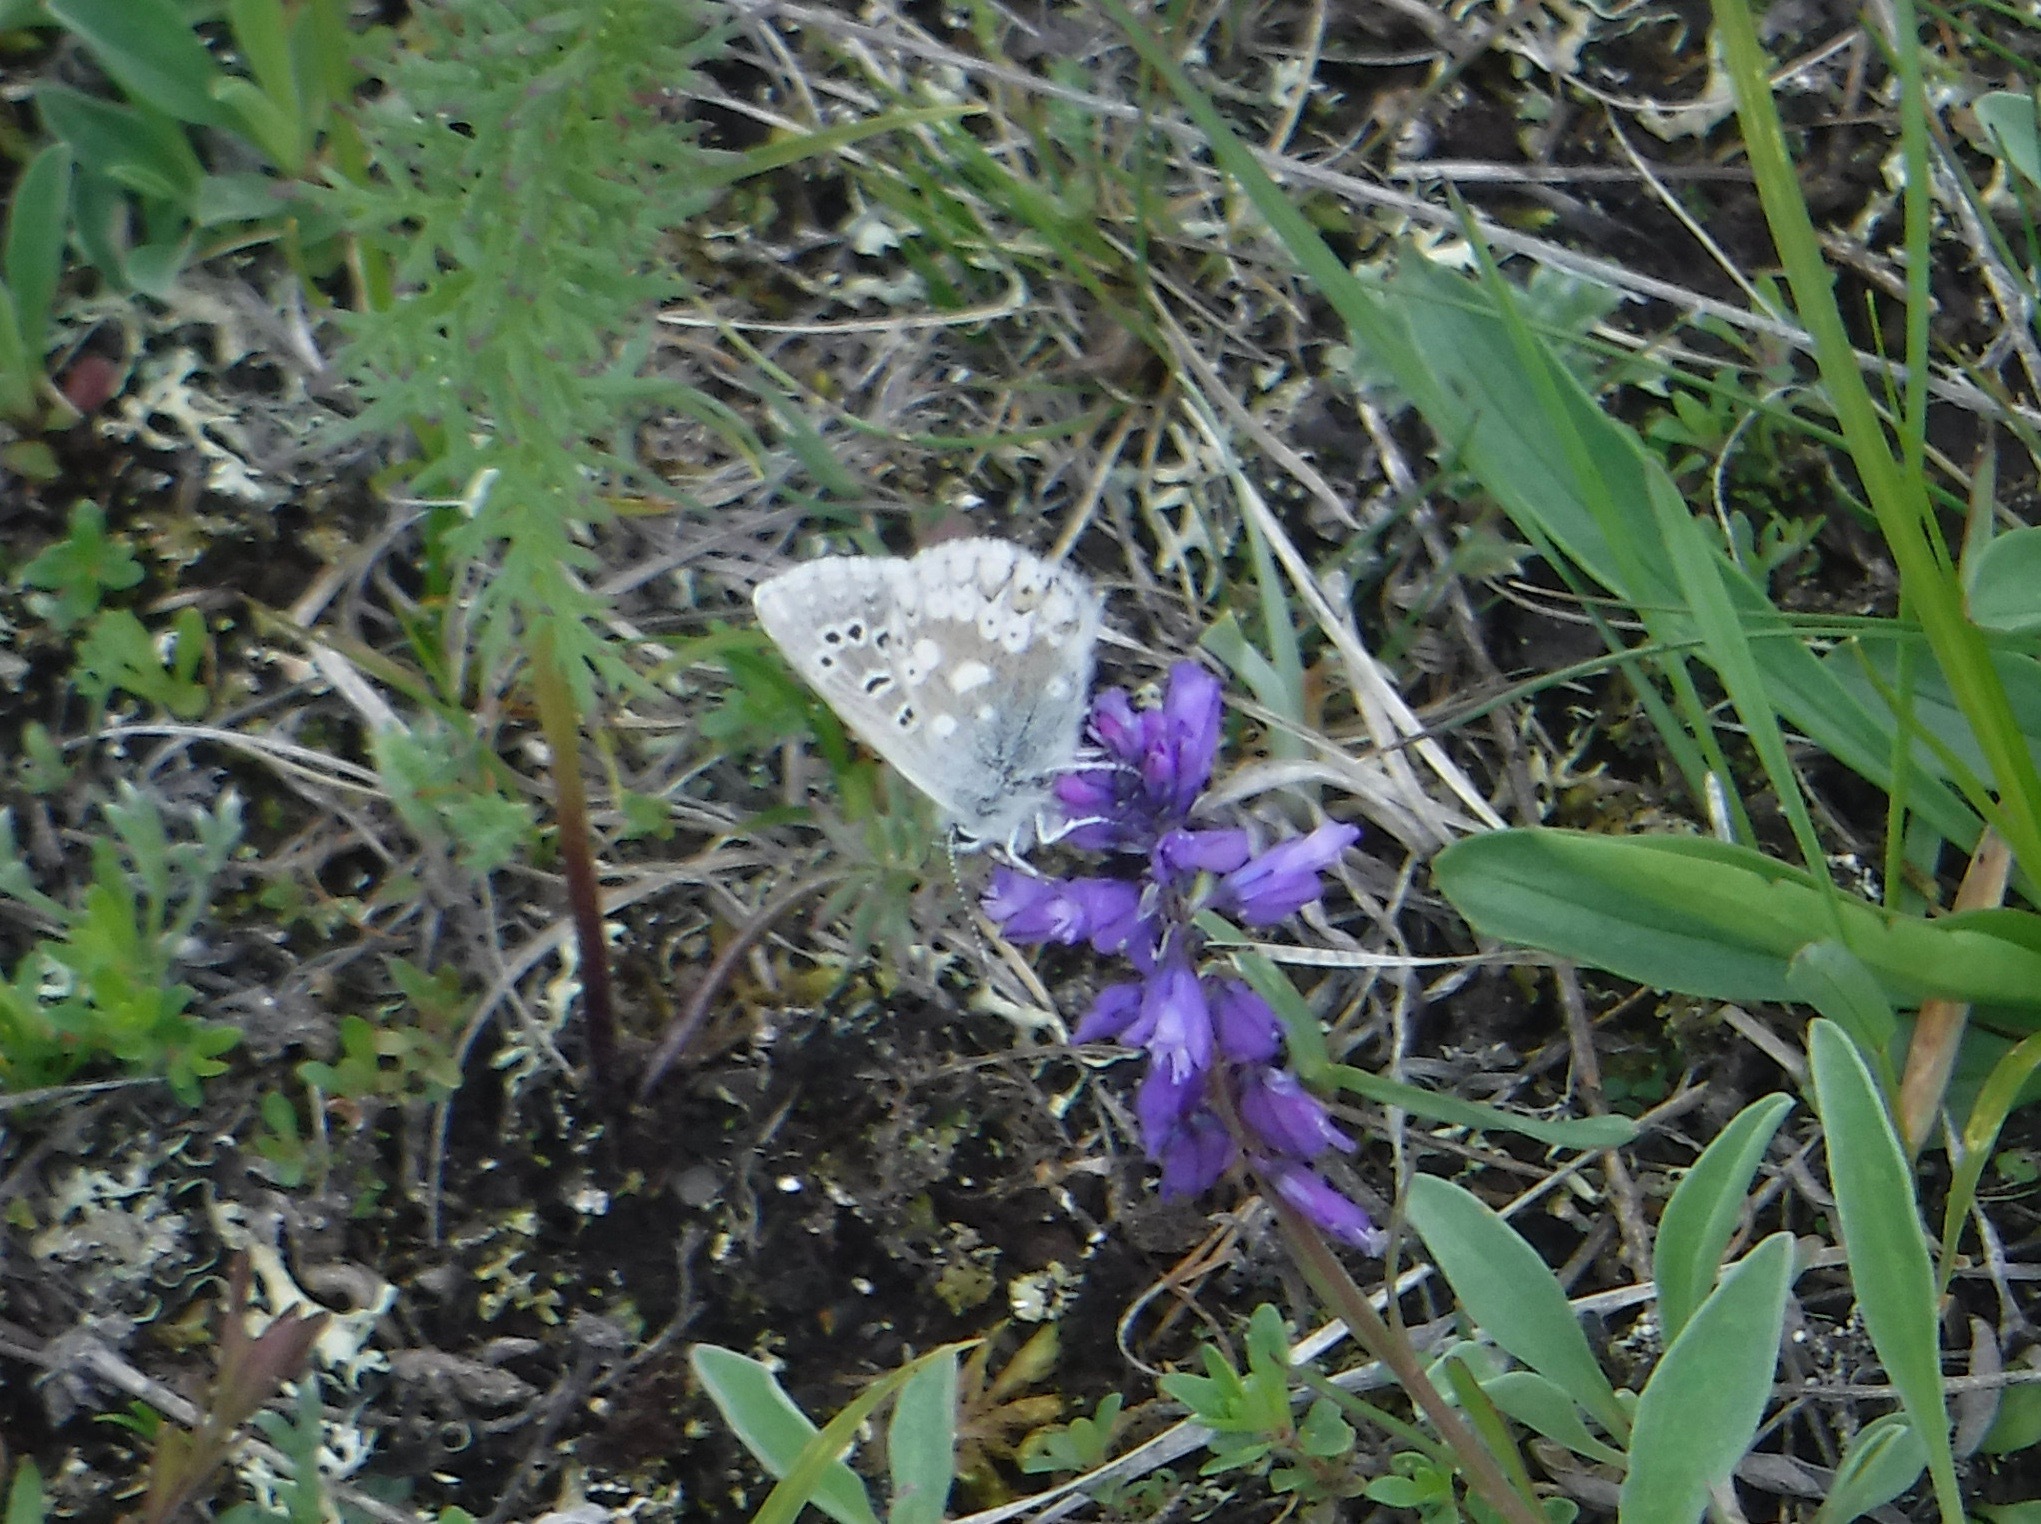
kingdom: Animalia
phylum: Arthropoda
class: Insecta
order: Lepidoptera
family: Lycaenidae
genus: Agriades
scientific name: Agriades glandon
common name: Glandon blue
